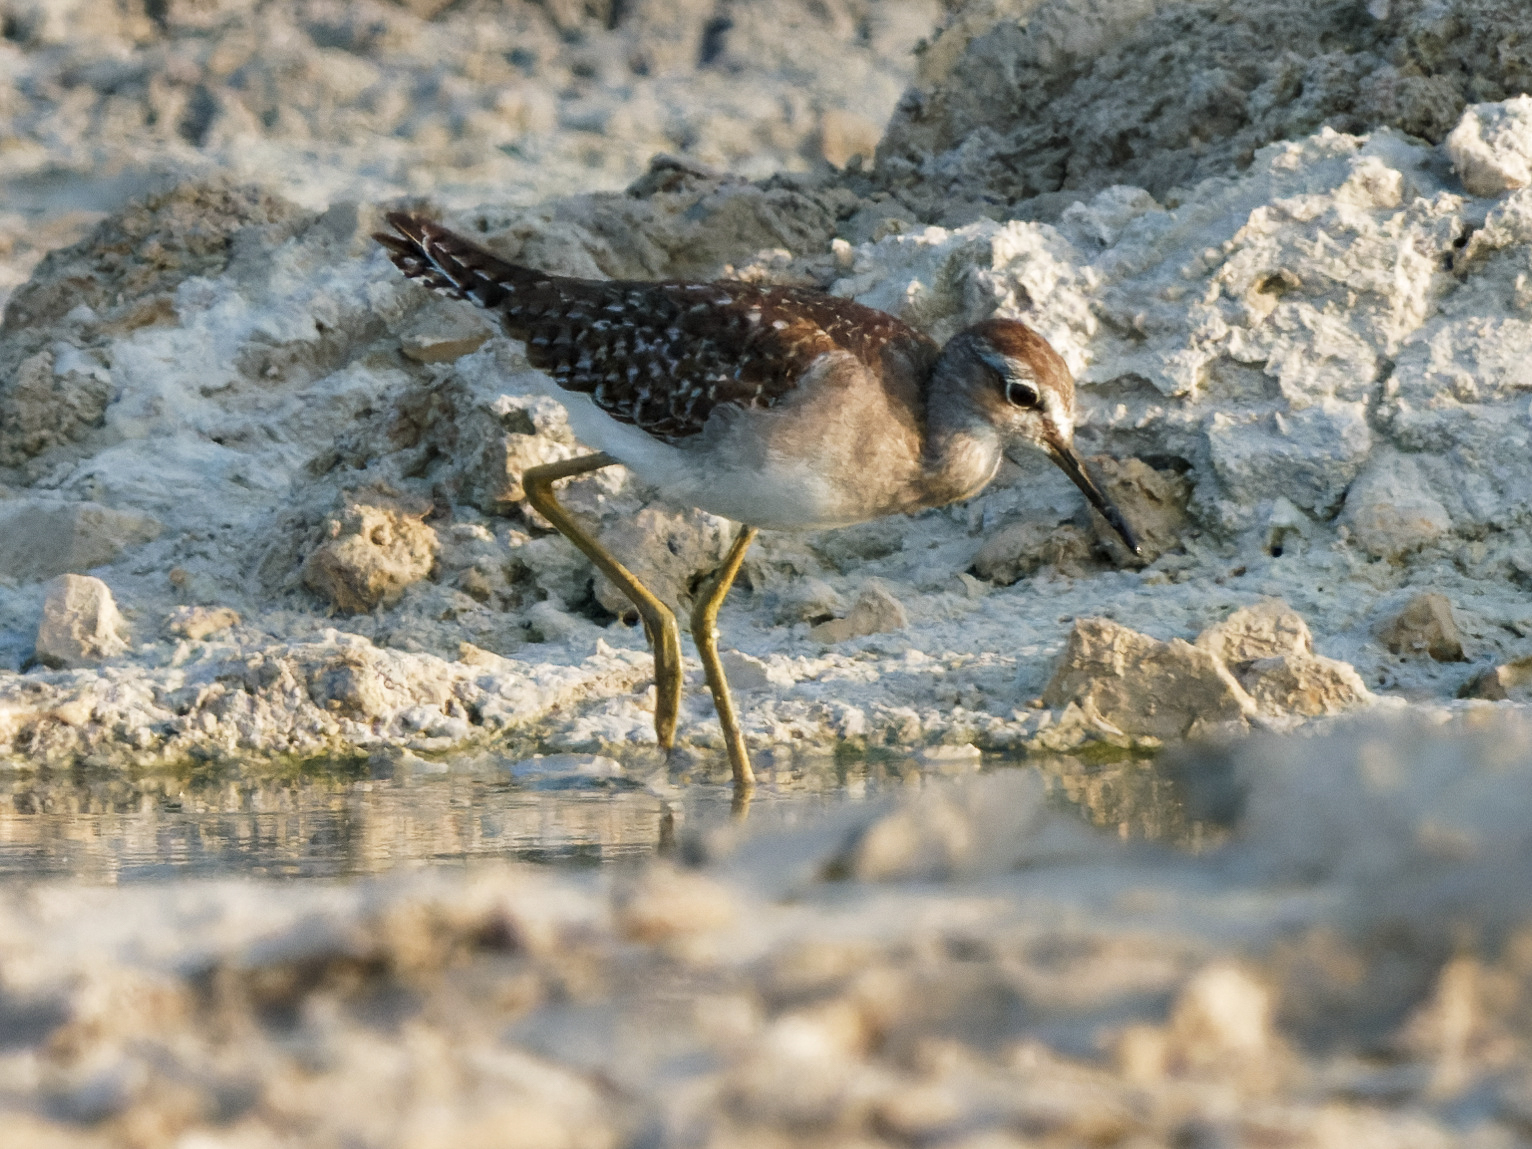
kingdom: Animalia
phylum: Chordata
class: Aves
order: Charadriiformes
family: Scolopacidae
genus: Tringa
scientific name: Tringa glareola
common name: Wood sandpiper
